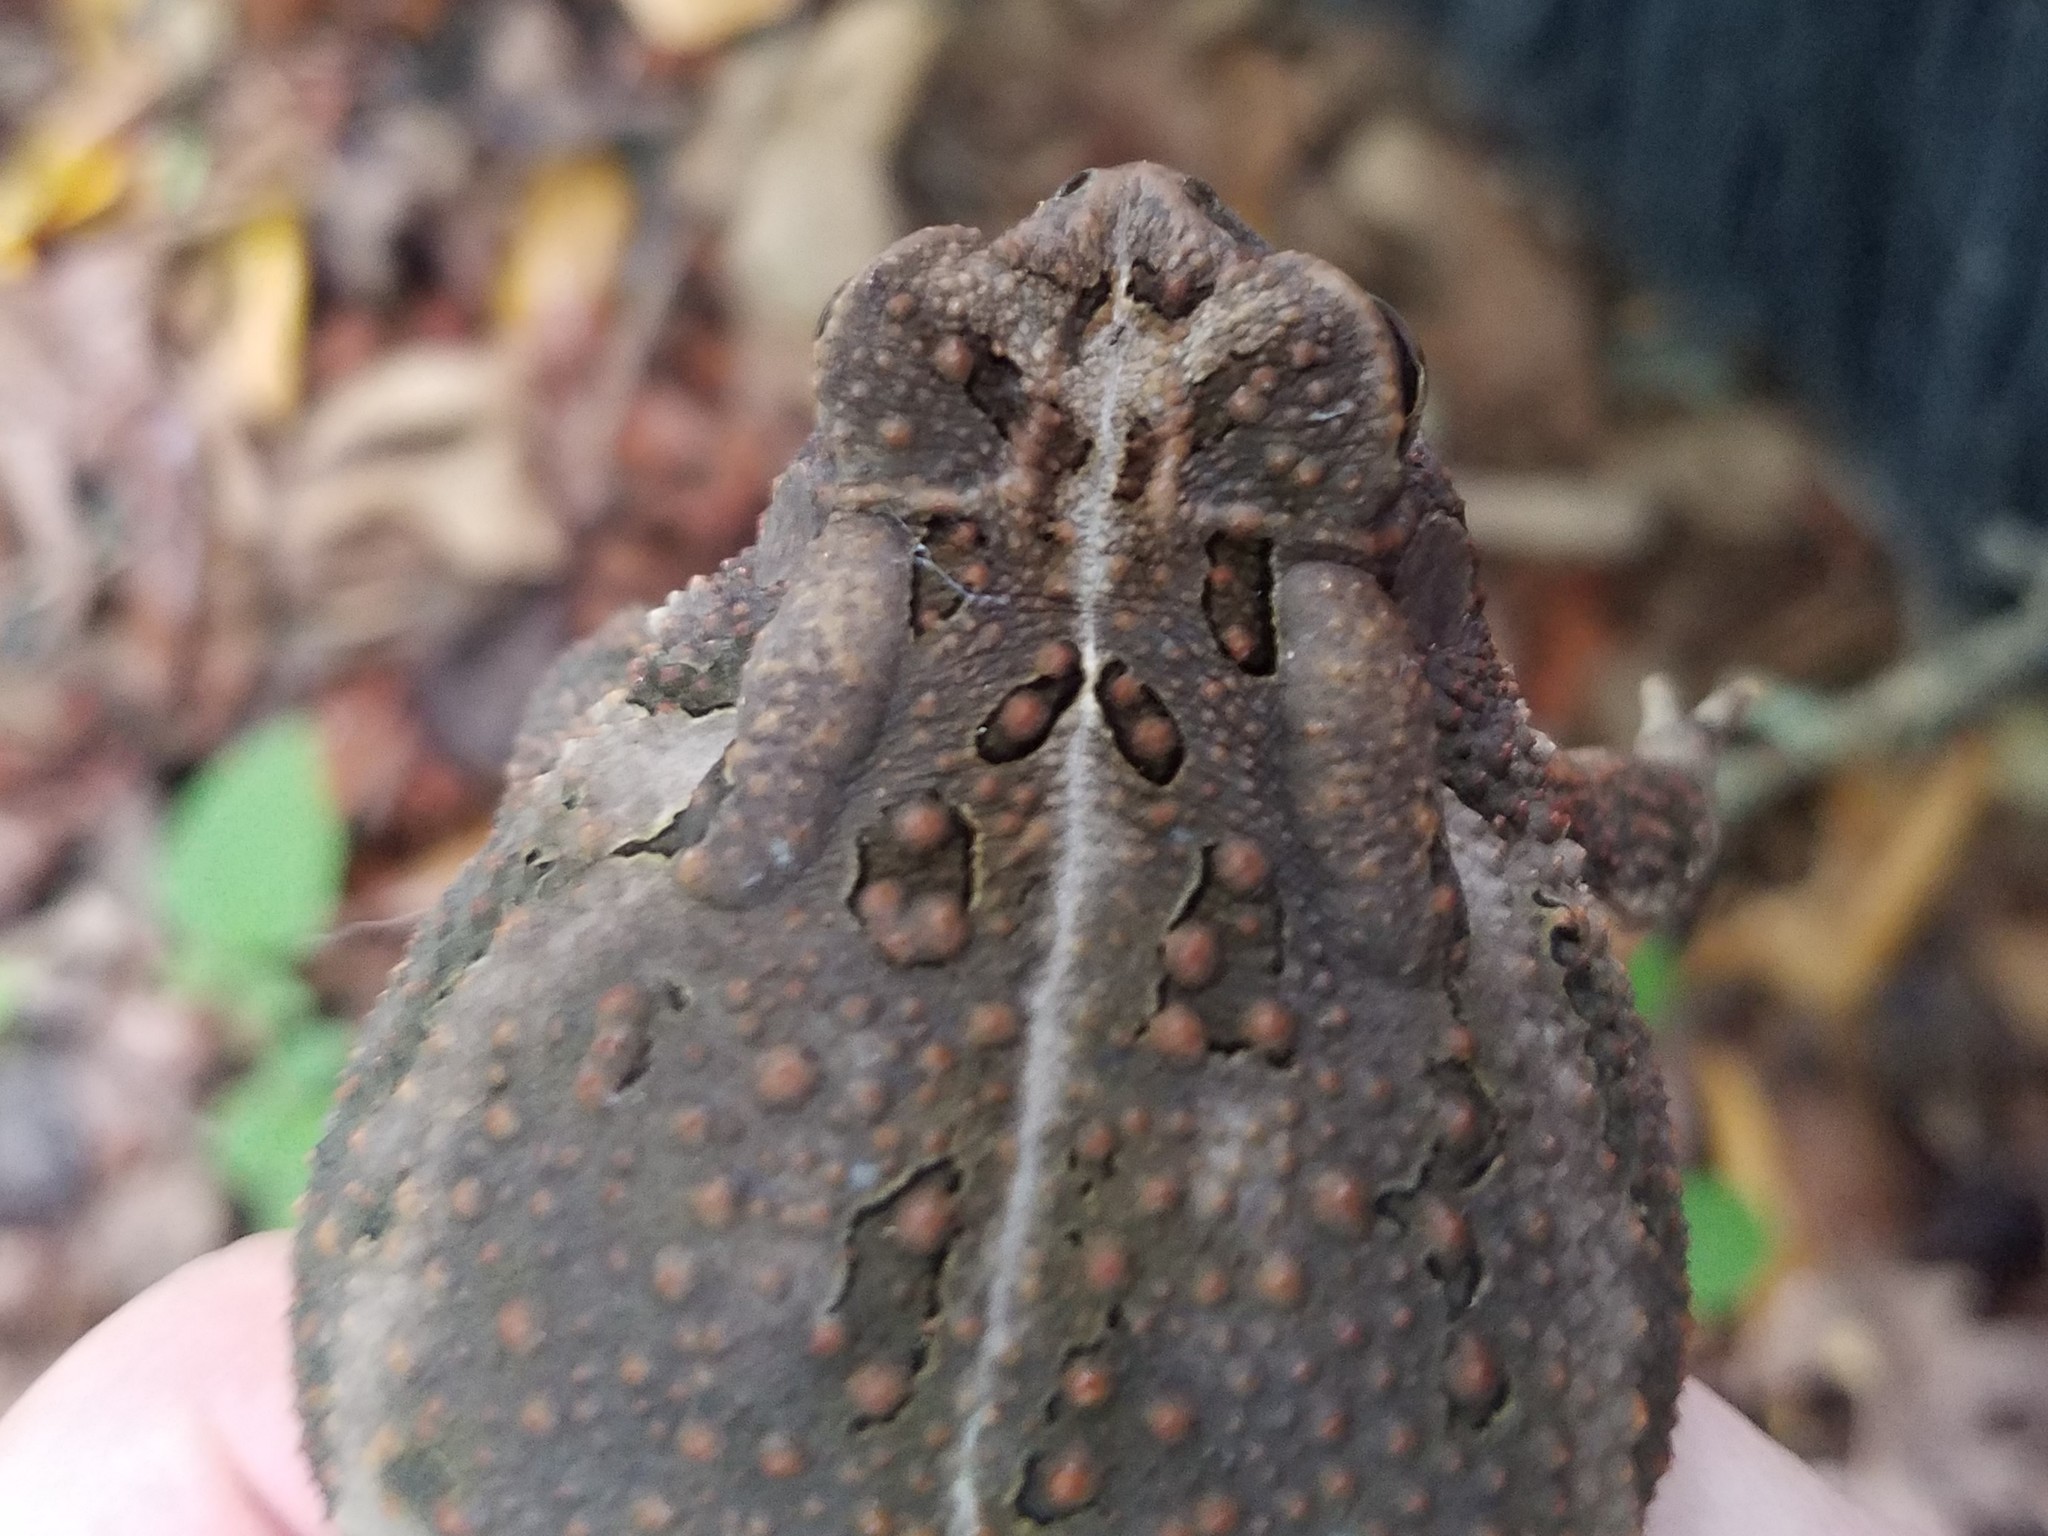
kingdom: Animalia
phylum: Chordata
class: Amphibia
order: Anura
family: Bufonidae
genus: Anaxyrus
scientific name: Anaxyrus fowleri
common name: Fowler's toad
